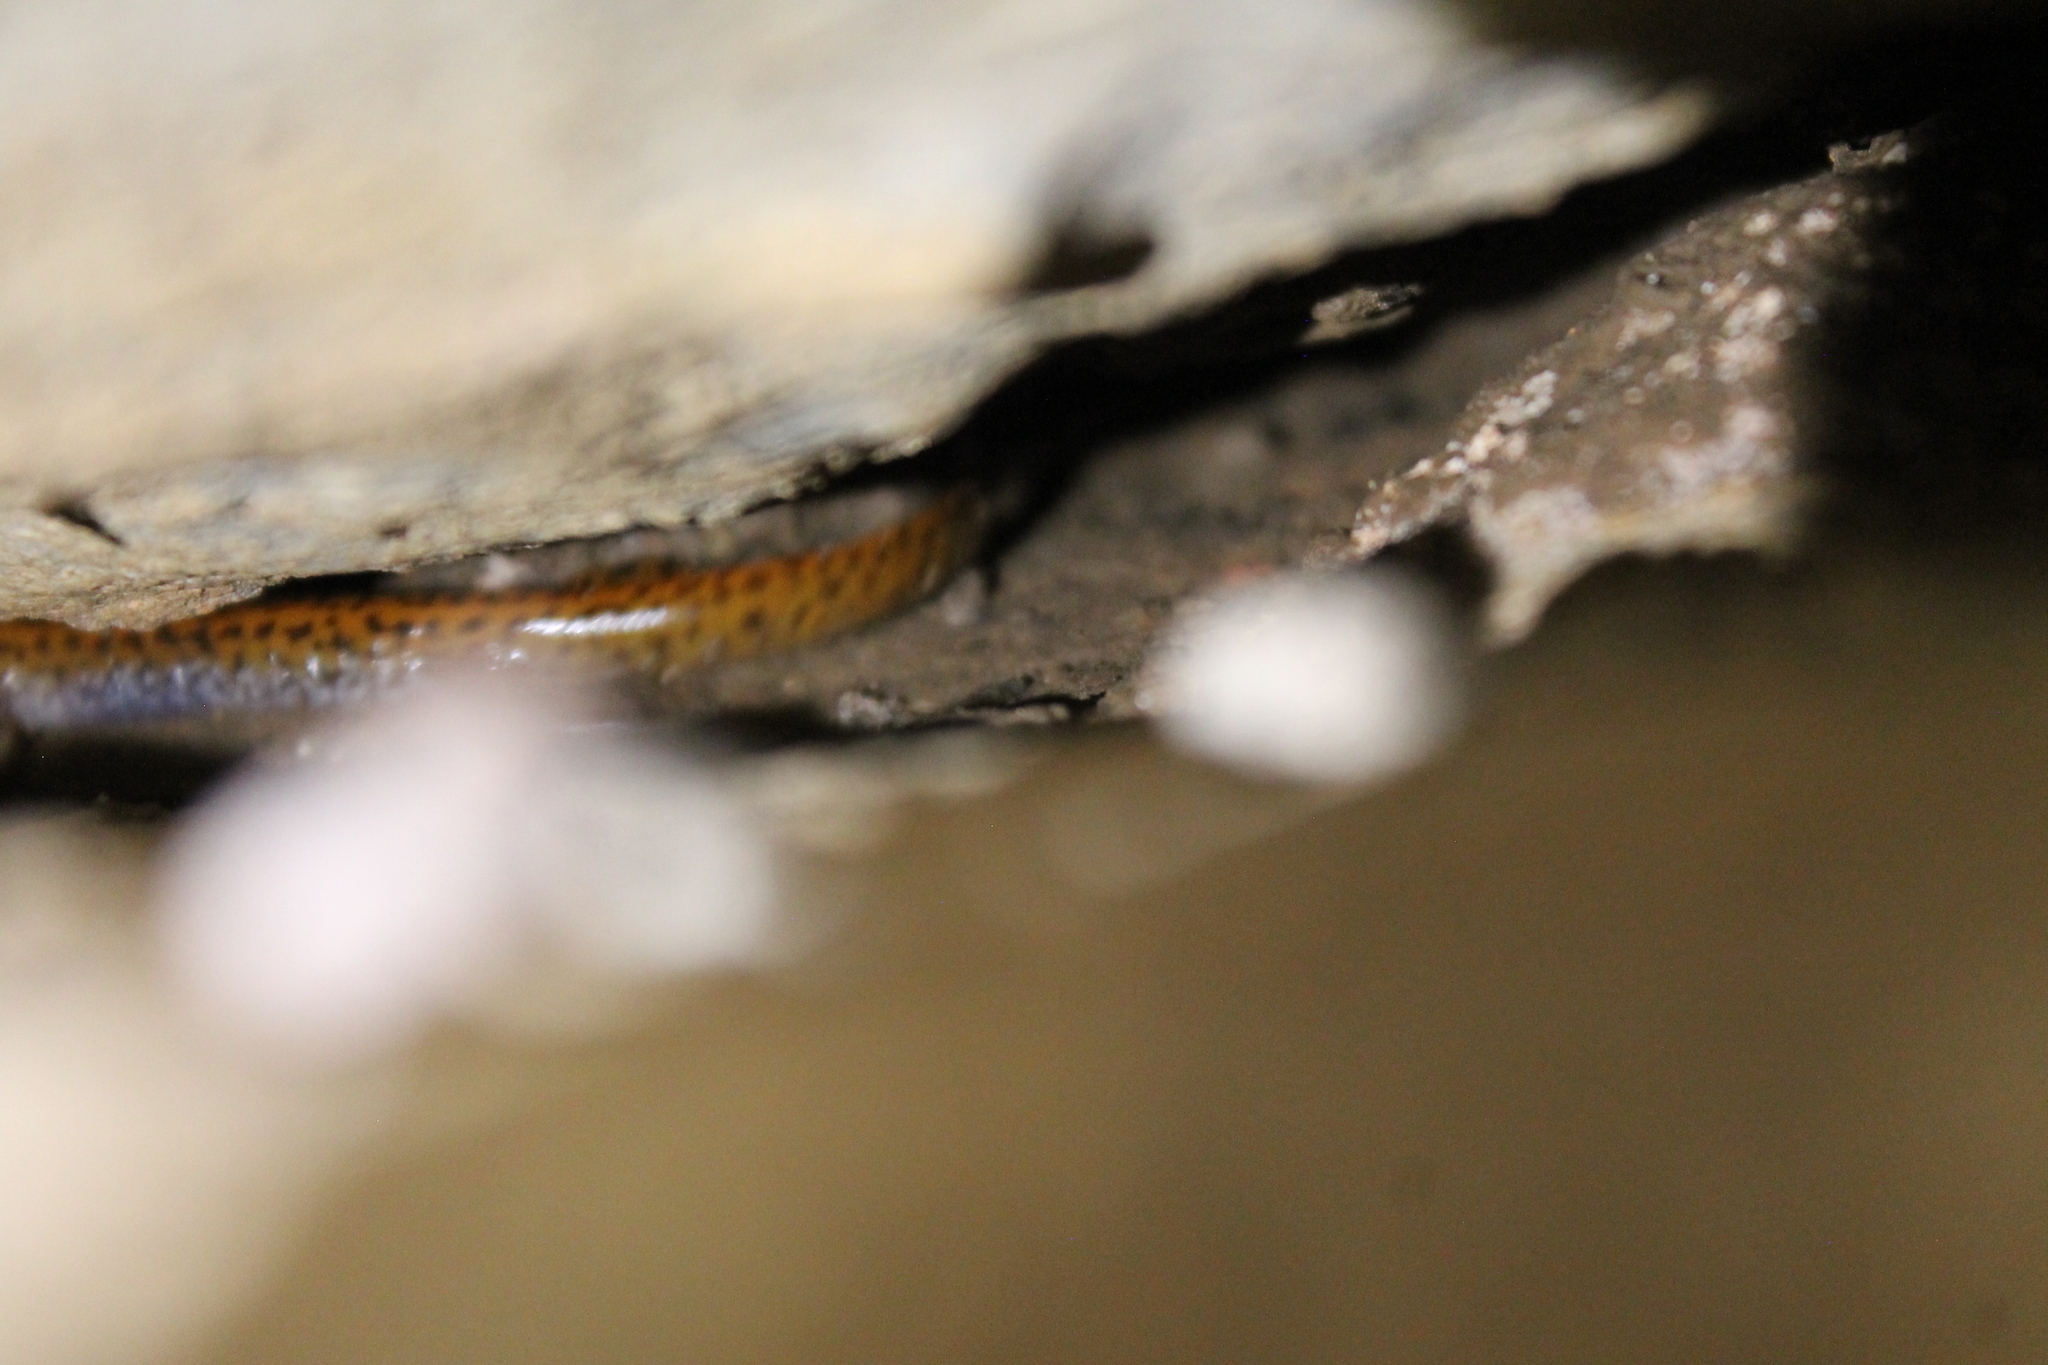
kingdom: Animalia
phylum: Chordata
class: Amphibia
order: Caudata
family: Plethodontidae
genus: Eurycea
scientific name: Eurycea lucifuga
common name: Cave salamander
